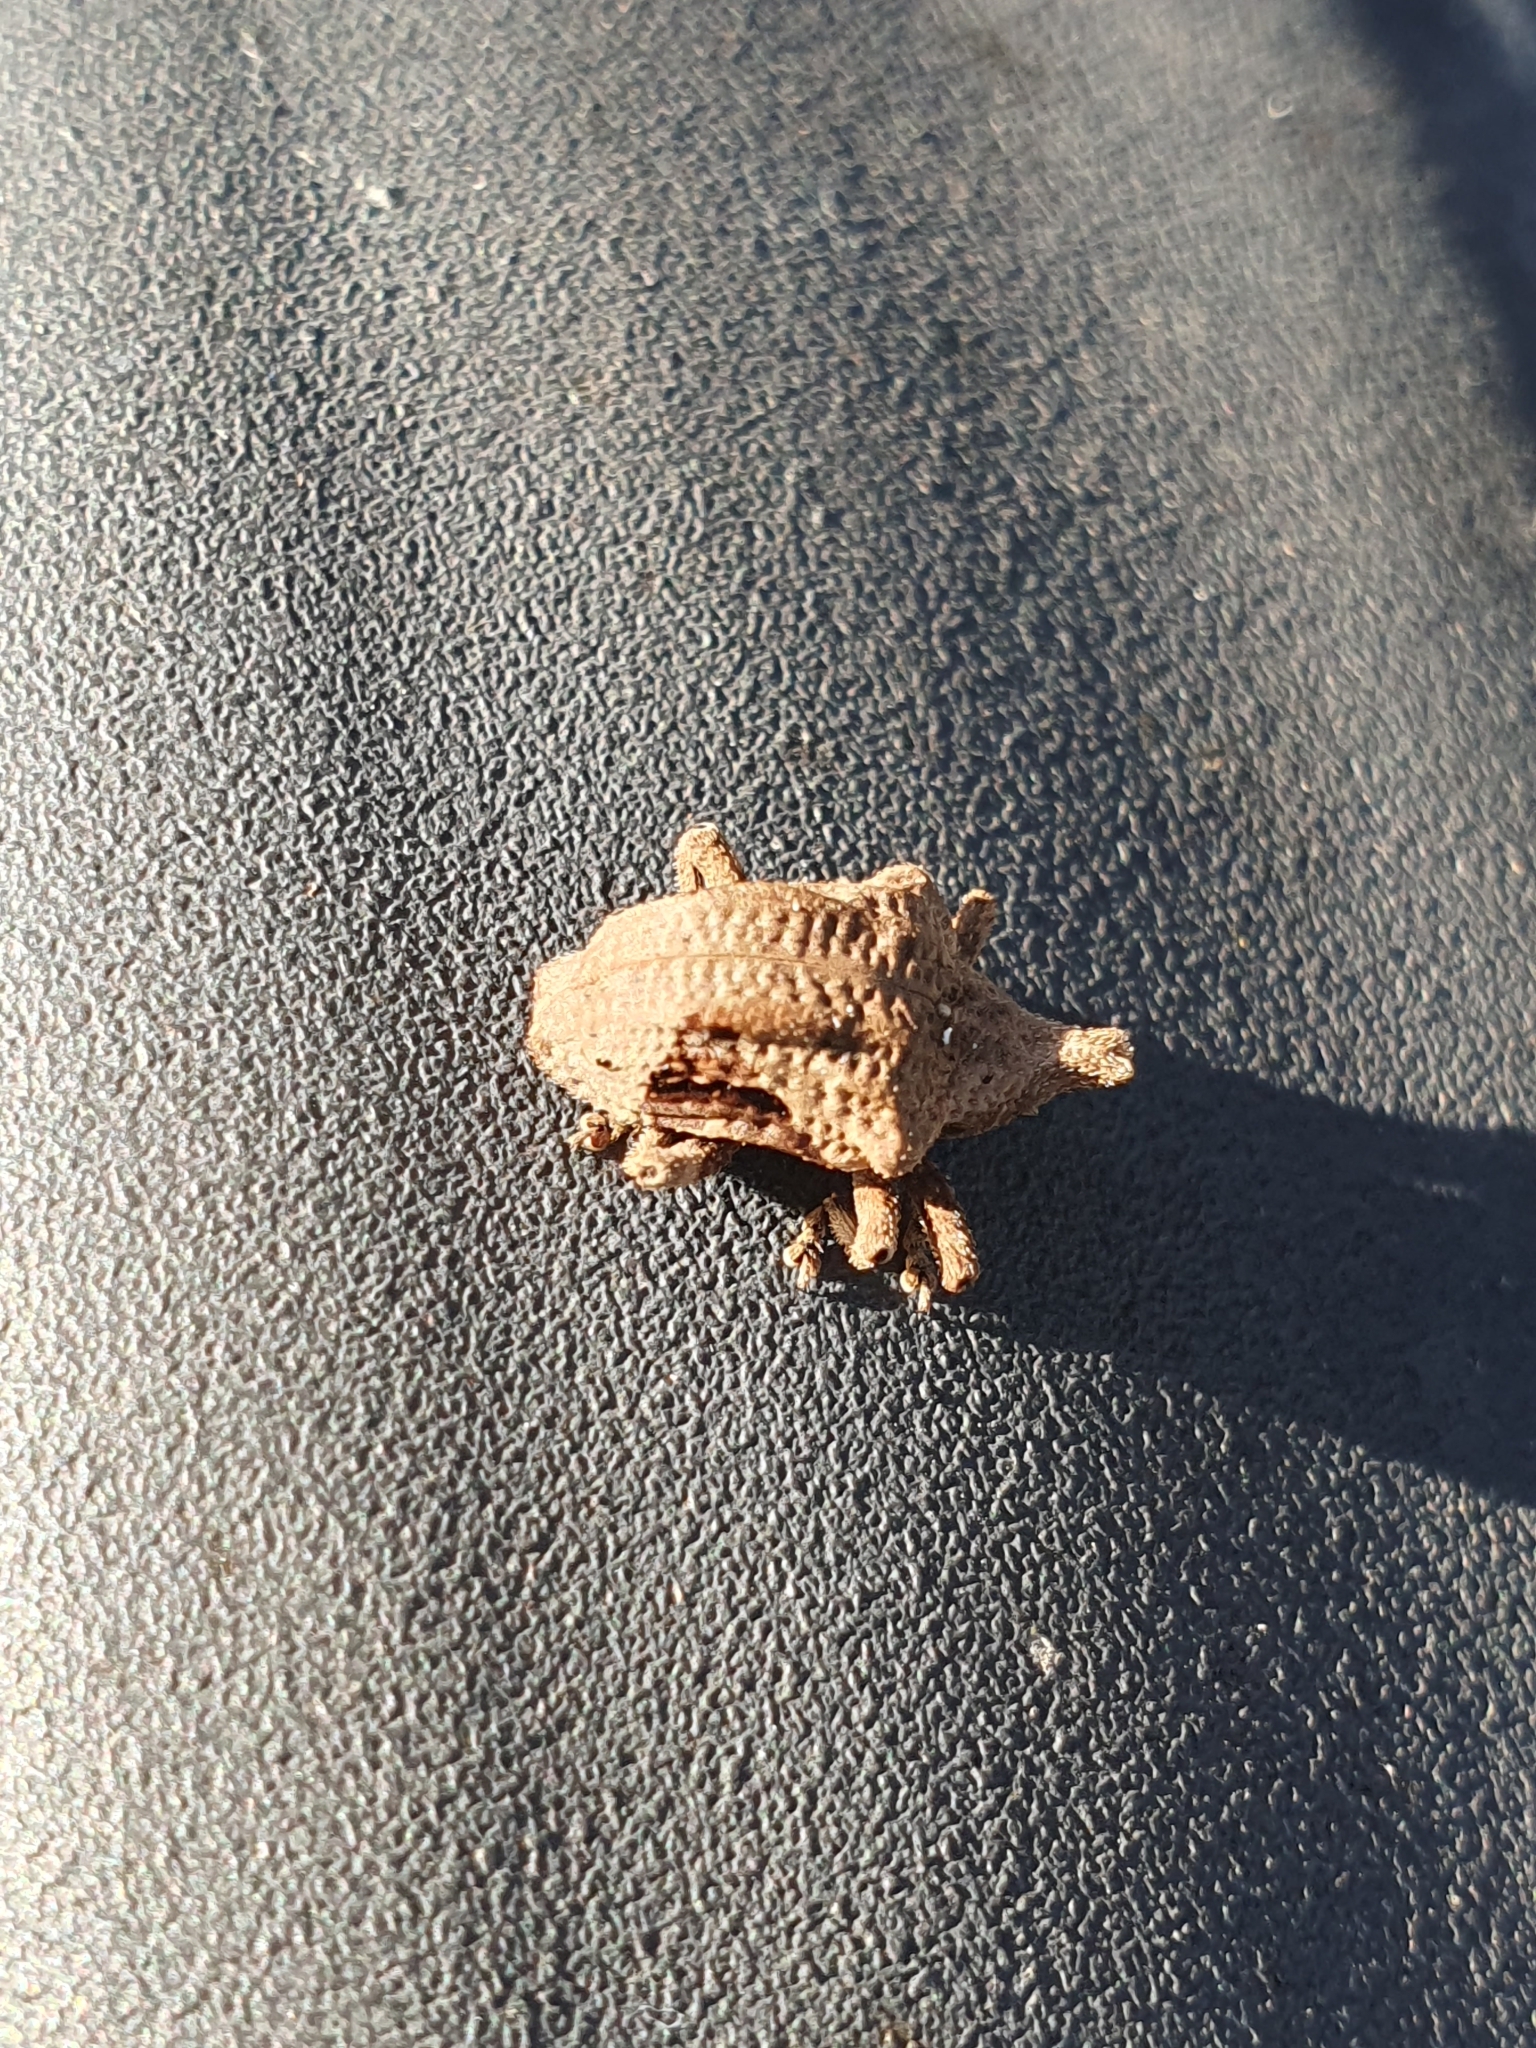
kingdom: Animalia
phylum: Arthropoda
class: Insecta
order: Coleoptera
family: Curculionidae
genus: Oemethylus
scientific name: Oemethylus
